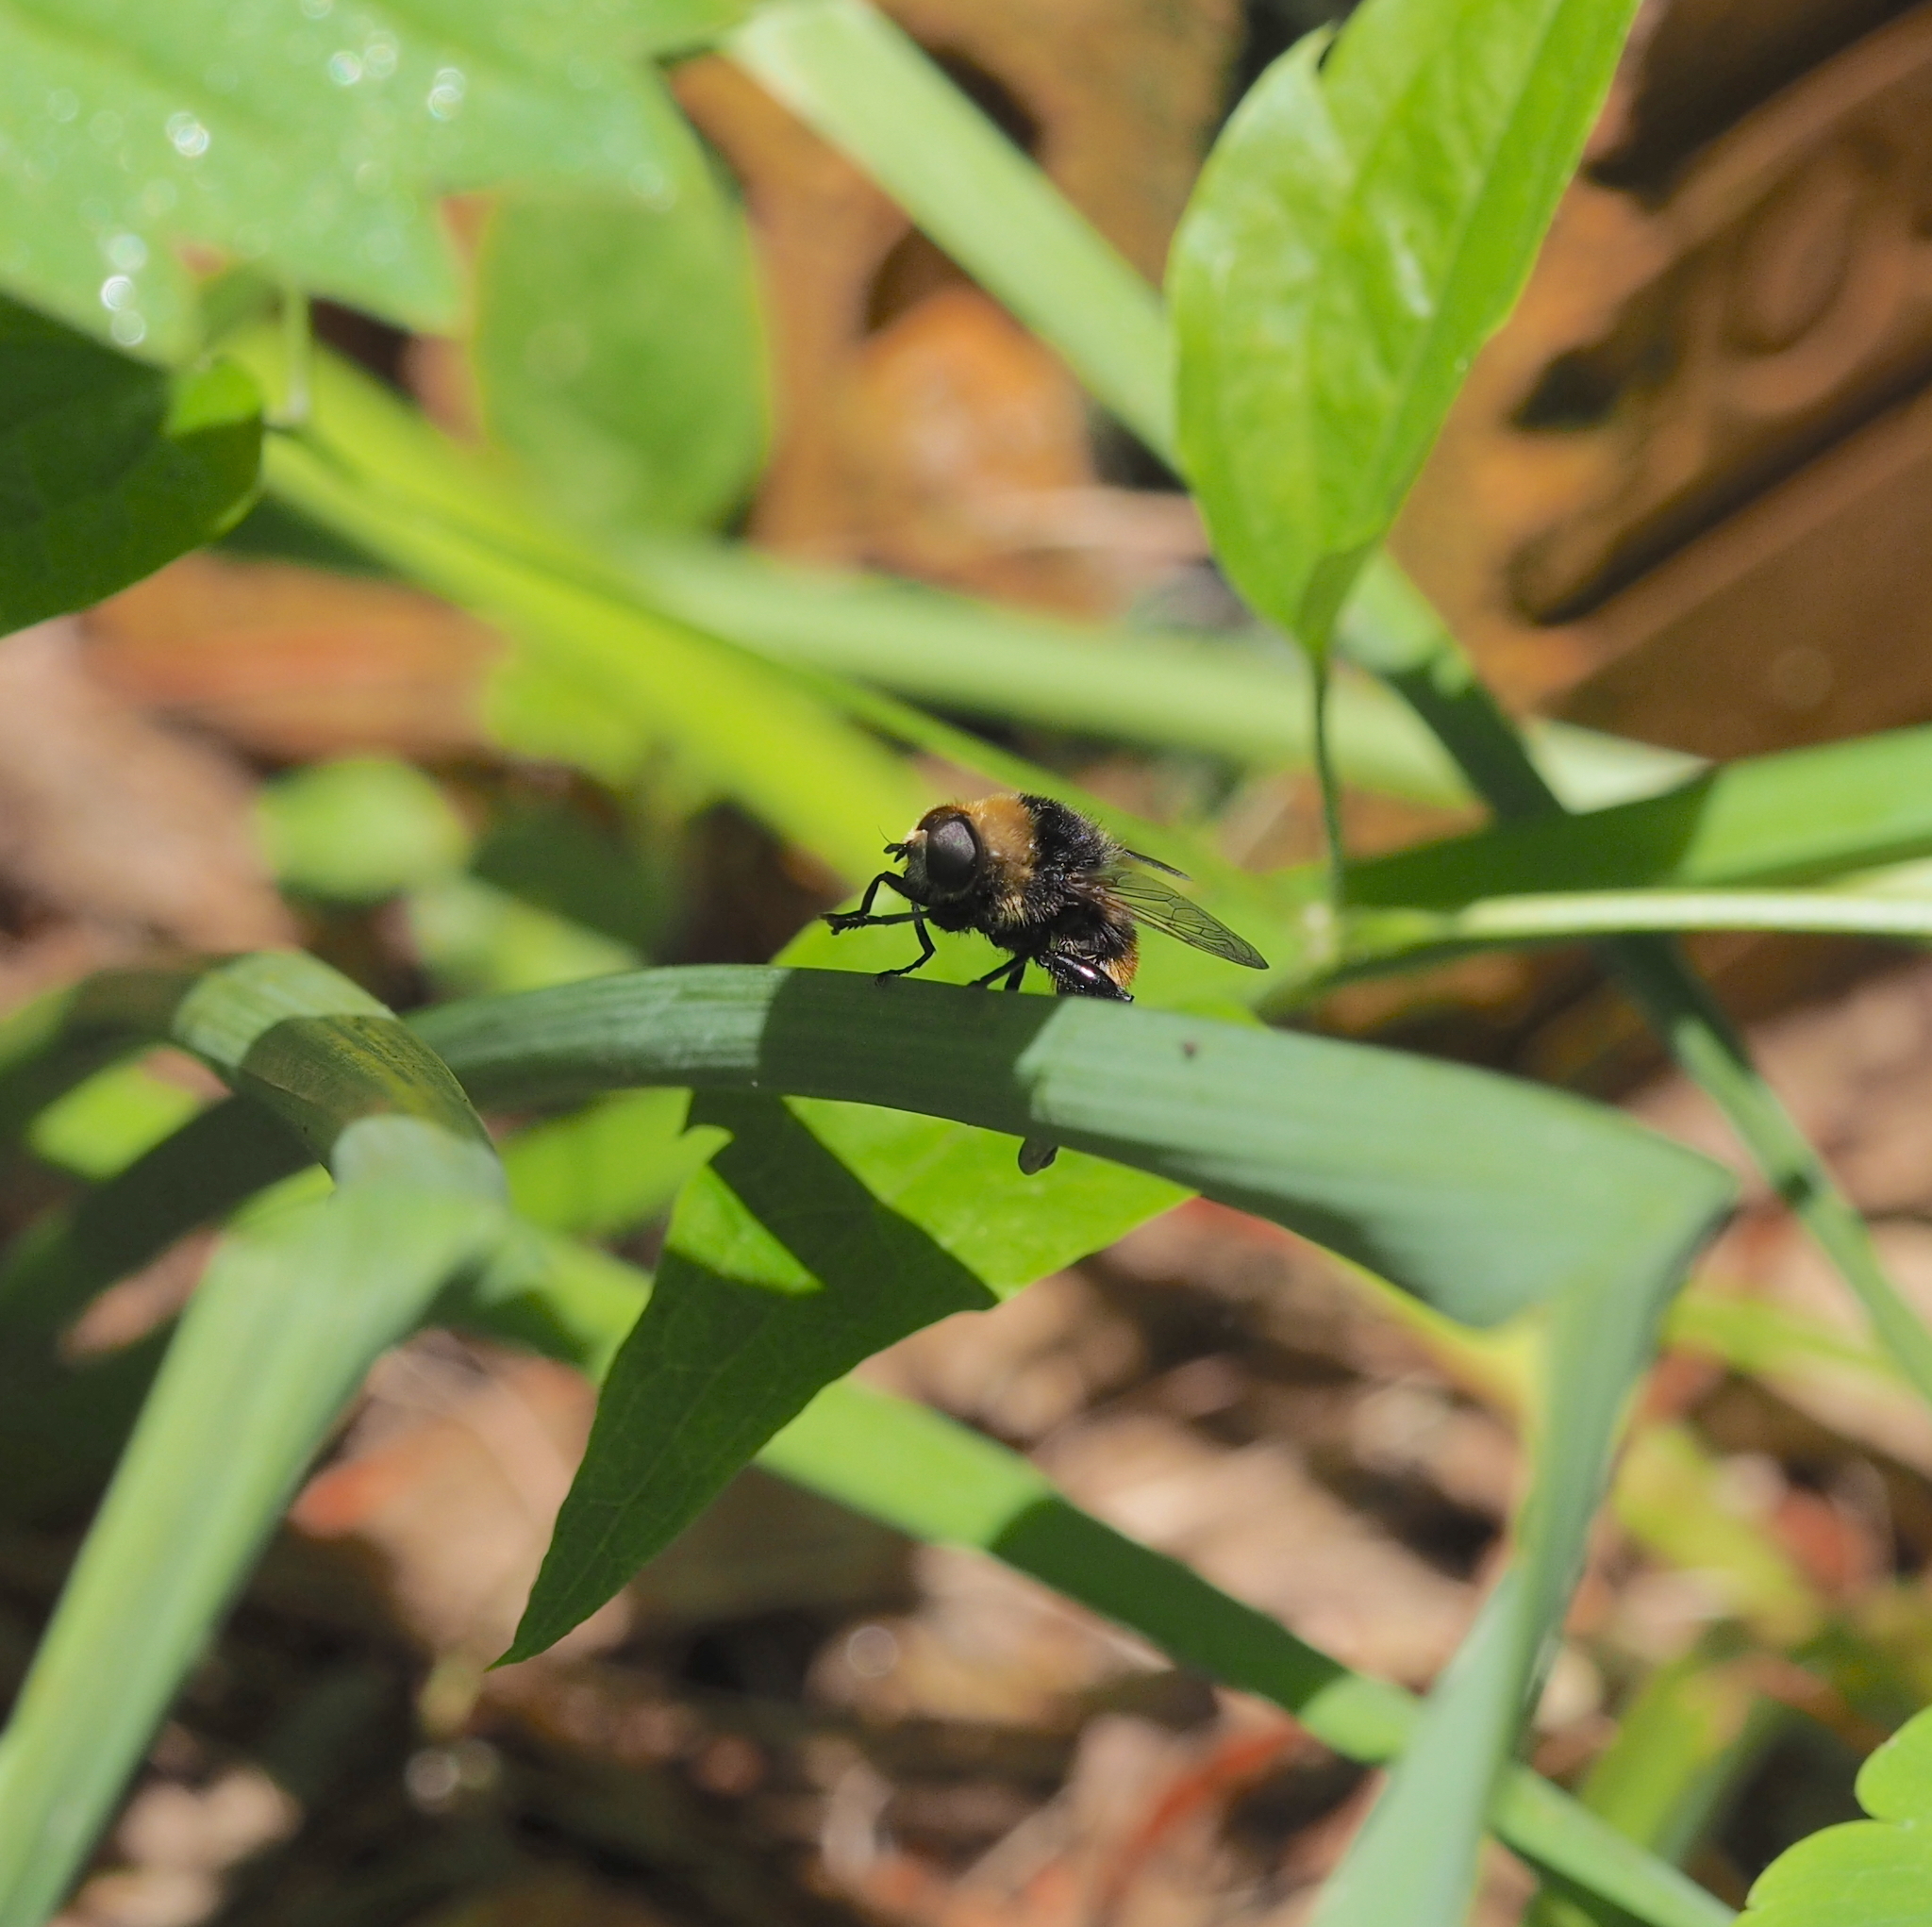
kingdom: Animalia
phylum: Arthropoda
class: Insecta
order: Diptera
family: Syrphidae
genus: Merodon
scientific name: Merodon equestris
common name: Greater bulb-fly
